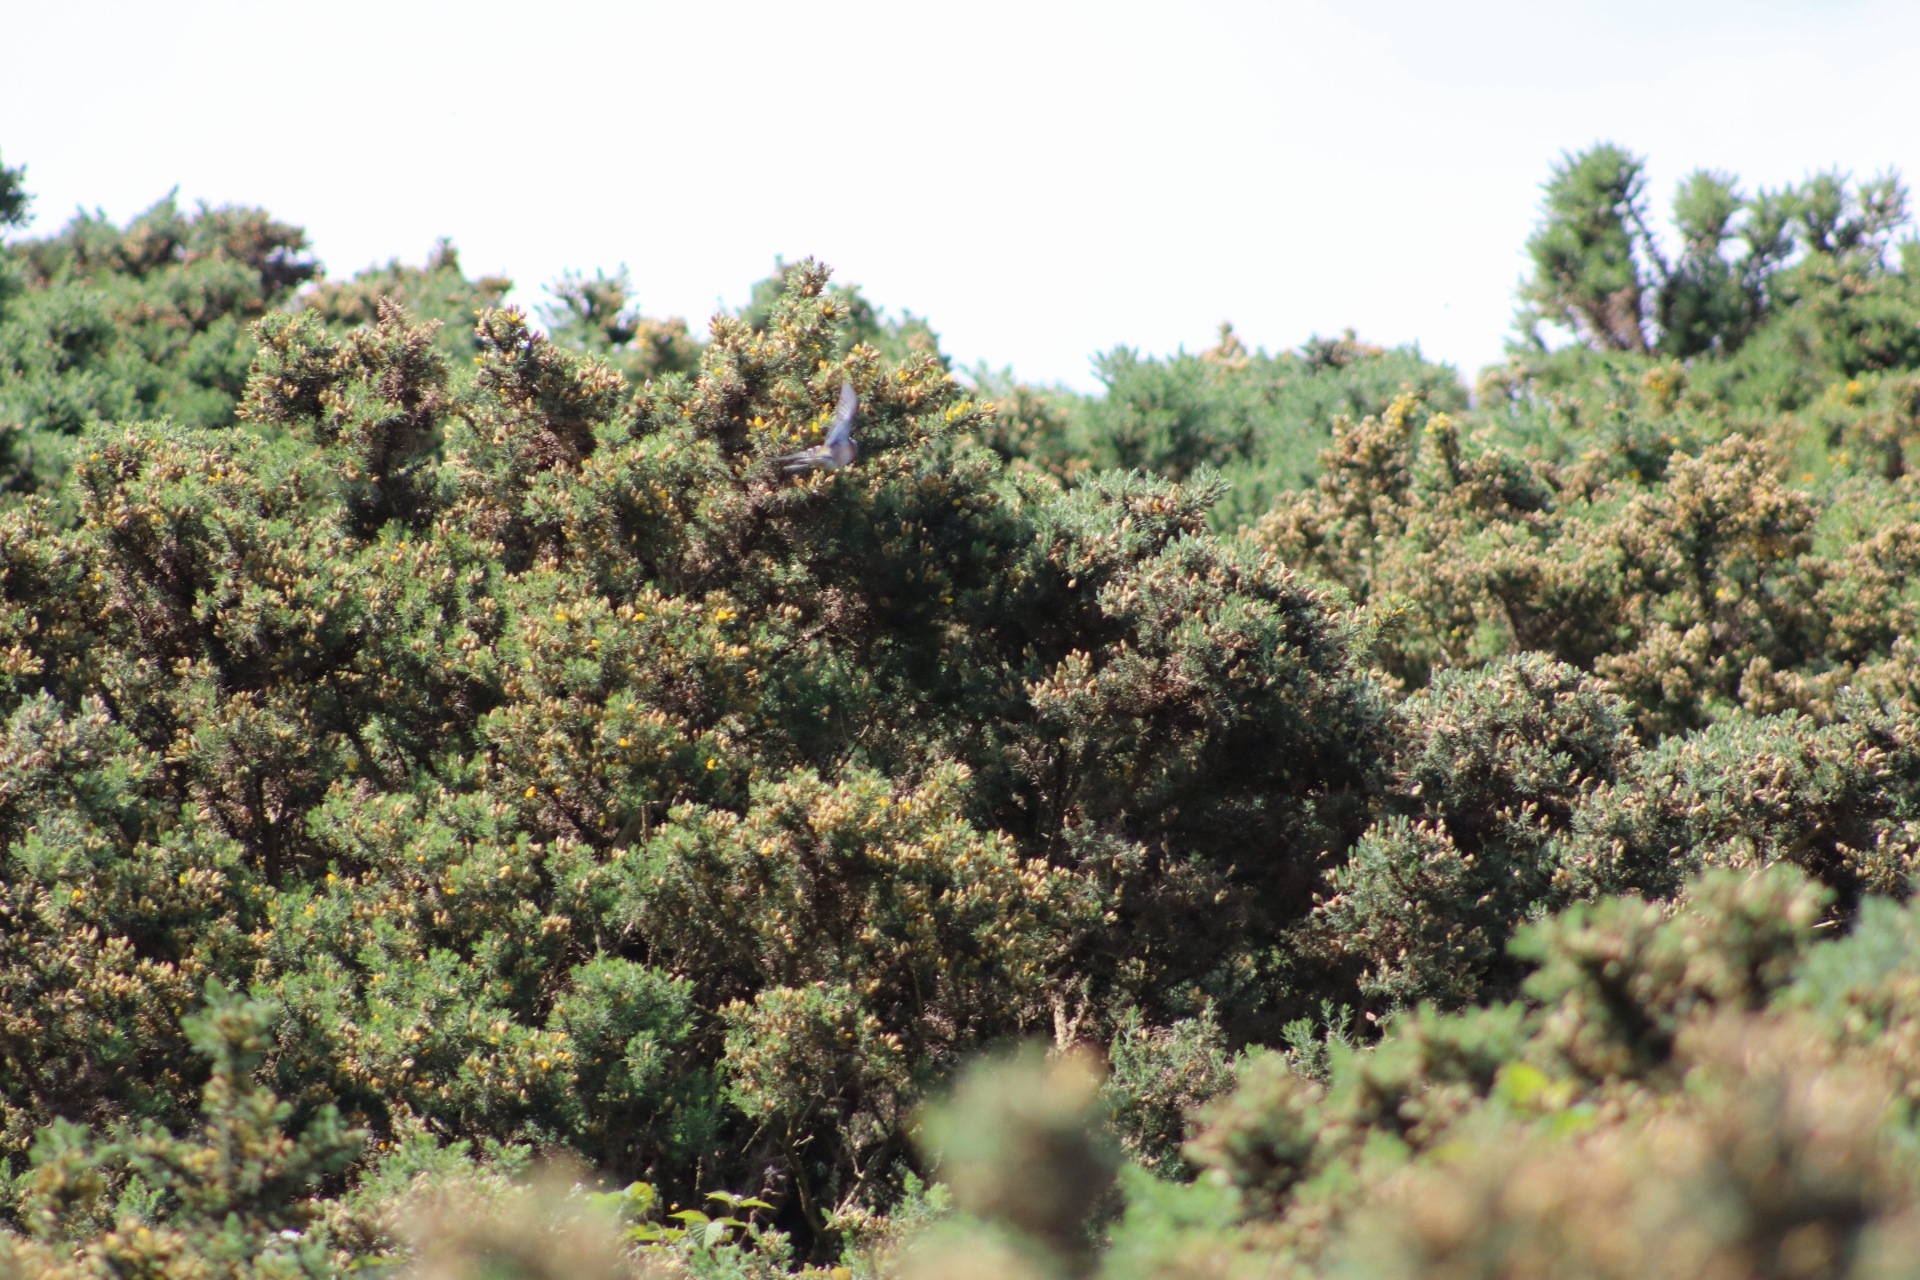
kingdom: Animalia
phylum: Chordata
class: Aves
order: Passeriformes
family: Fringillidae
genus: Fringilla
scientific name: Fringilla coelebs
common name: Common chaffinch
